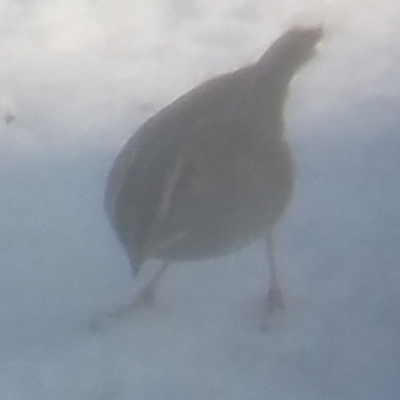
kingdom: Animalia
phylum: Chordata
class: Aves
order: Passeriformes
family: Passerellidae
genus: Zonotrichia
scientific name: Zonotrichia albicollis
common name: White-throated sparrow
